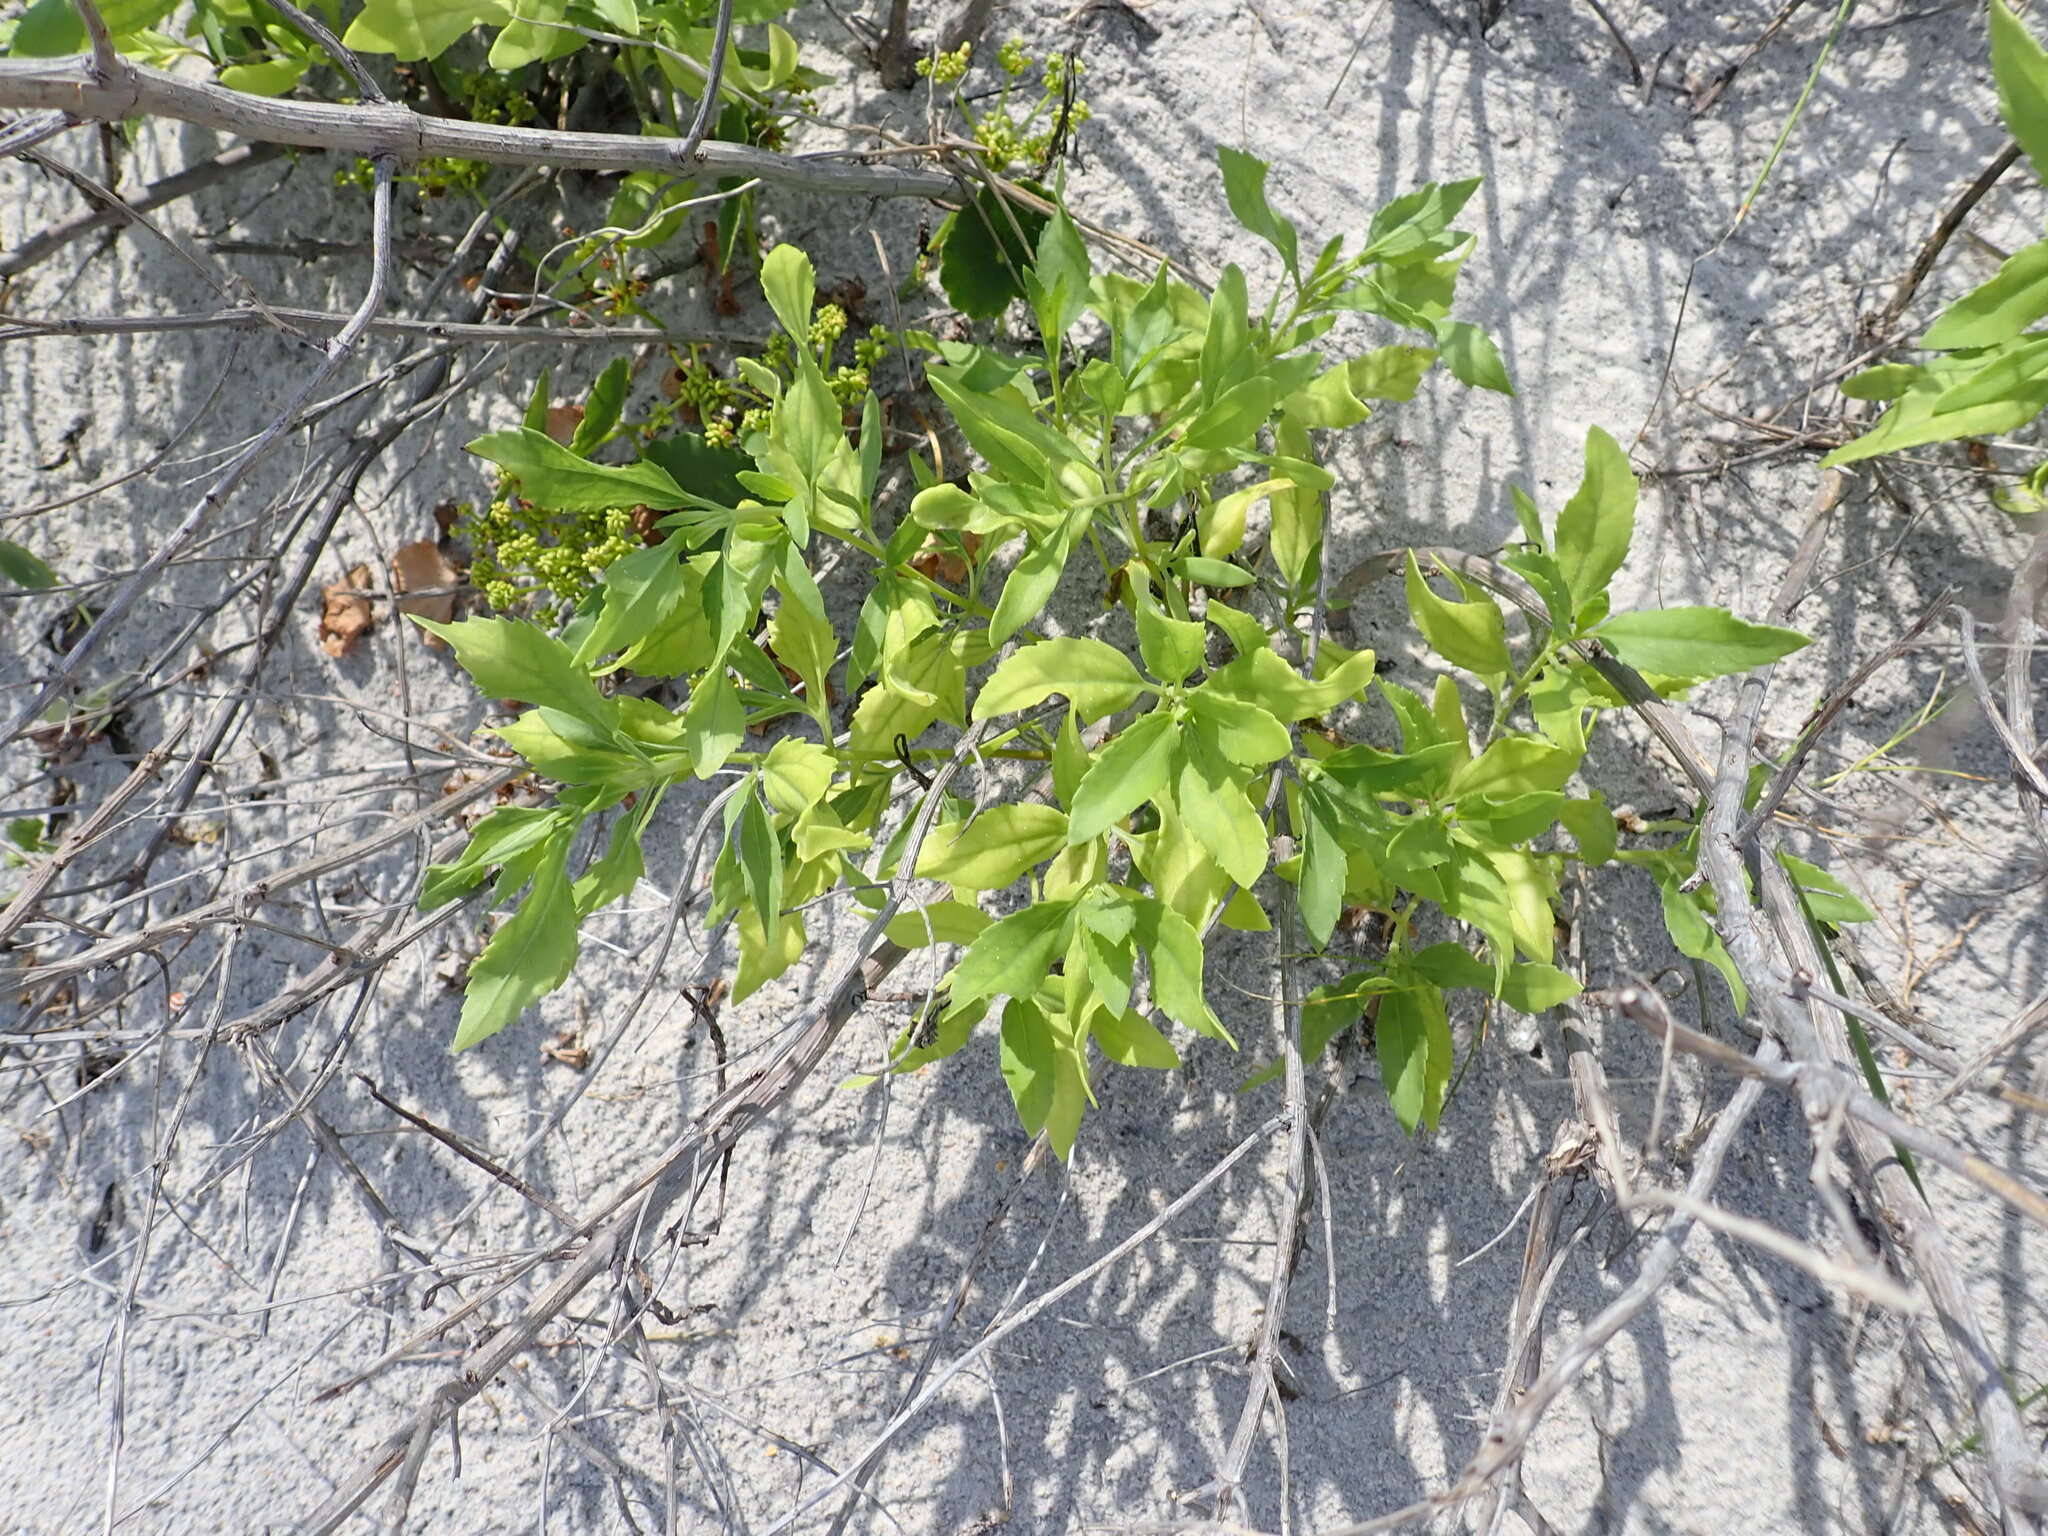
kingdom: Plantae
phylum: Tracheophyta
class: Magnoliopsida
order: Asterales
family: Asteraceae
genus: Iva
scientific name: Iva frutescens
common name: Big-leaved marsh-elder
